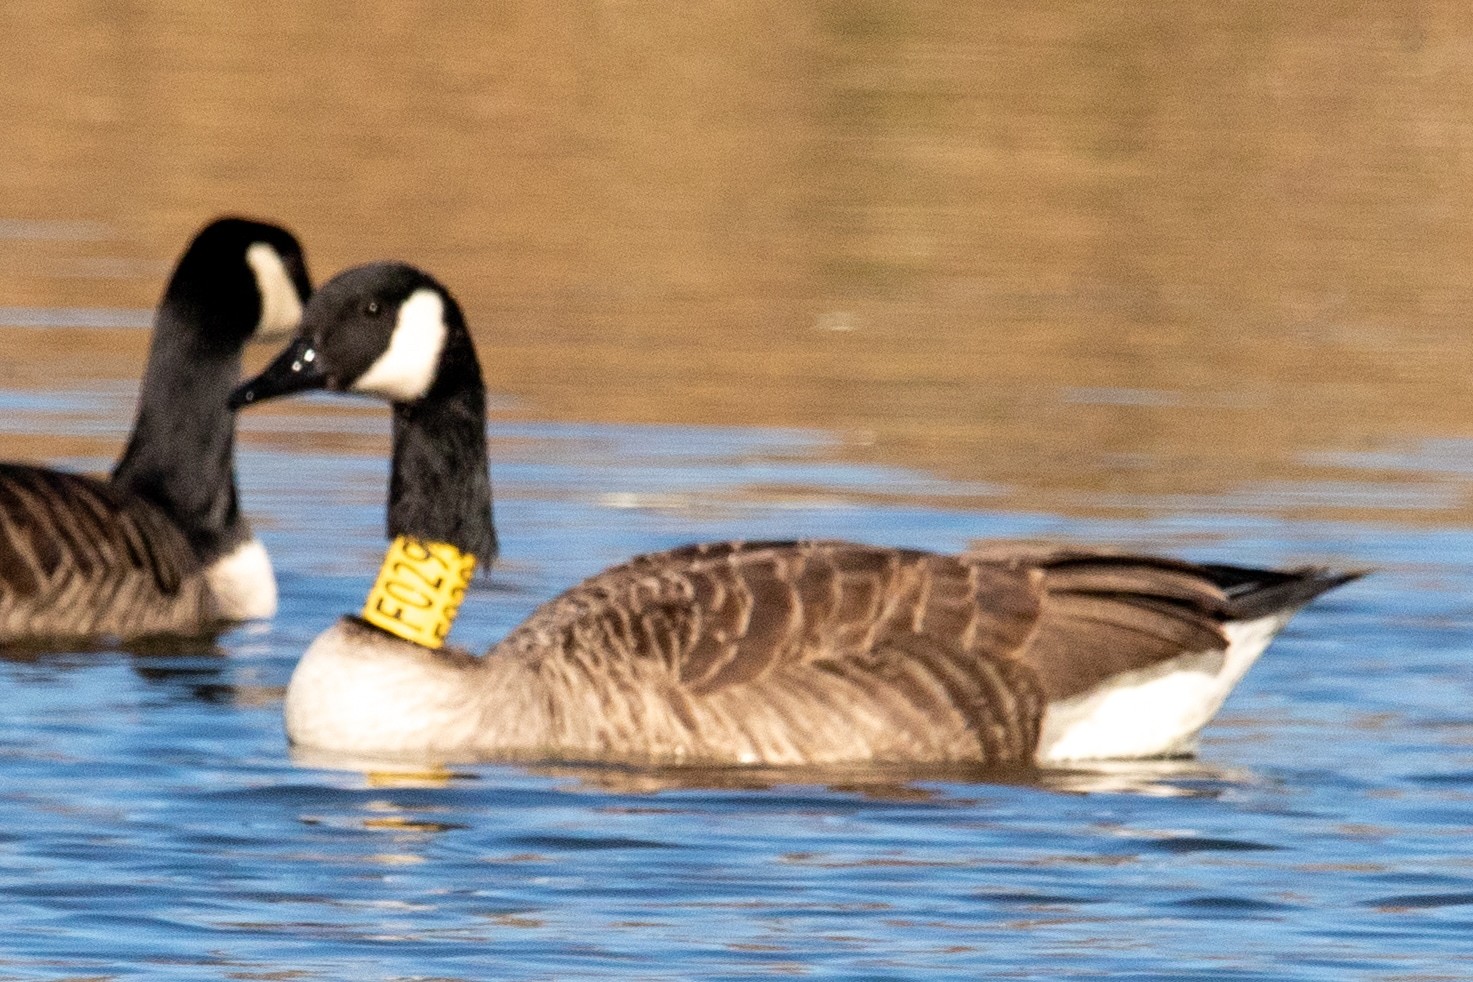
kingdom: Animalia
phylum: Chordata
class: Aves
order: Anseriformes
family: Anatidae
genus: Branta
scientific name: Branta canadensis
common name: Canada goose
